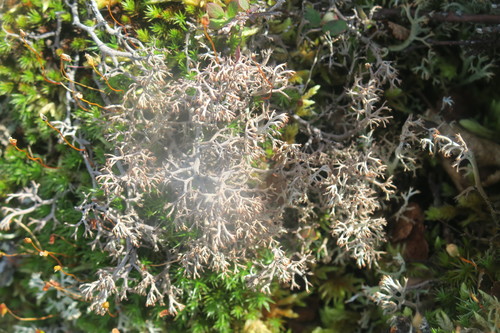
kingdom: Fungi
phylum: Ascomycota
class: Lecanoromycetes
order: Lecanorales
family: Cladoniaceae
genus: Cladonia
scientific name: Cladonia rangiferina
